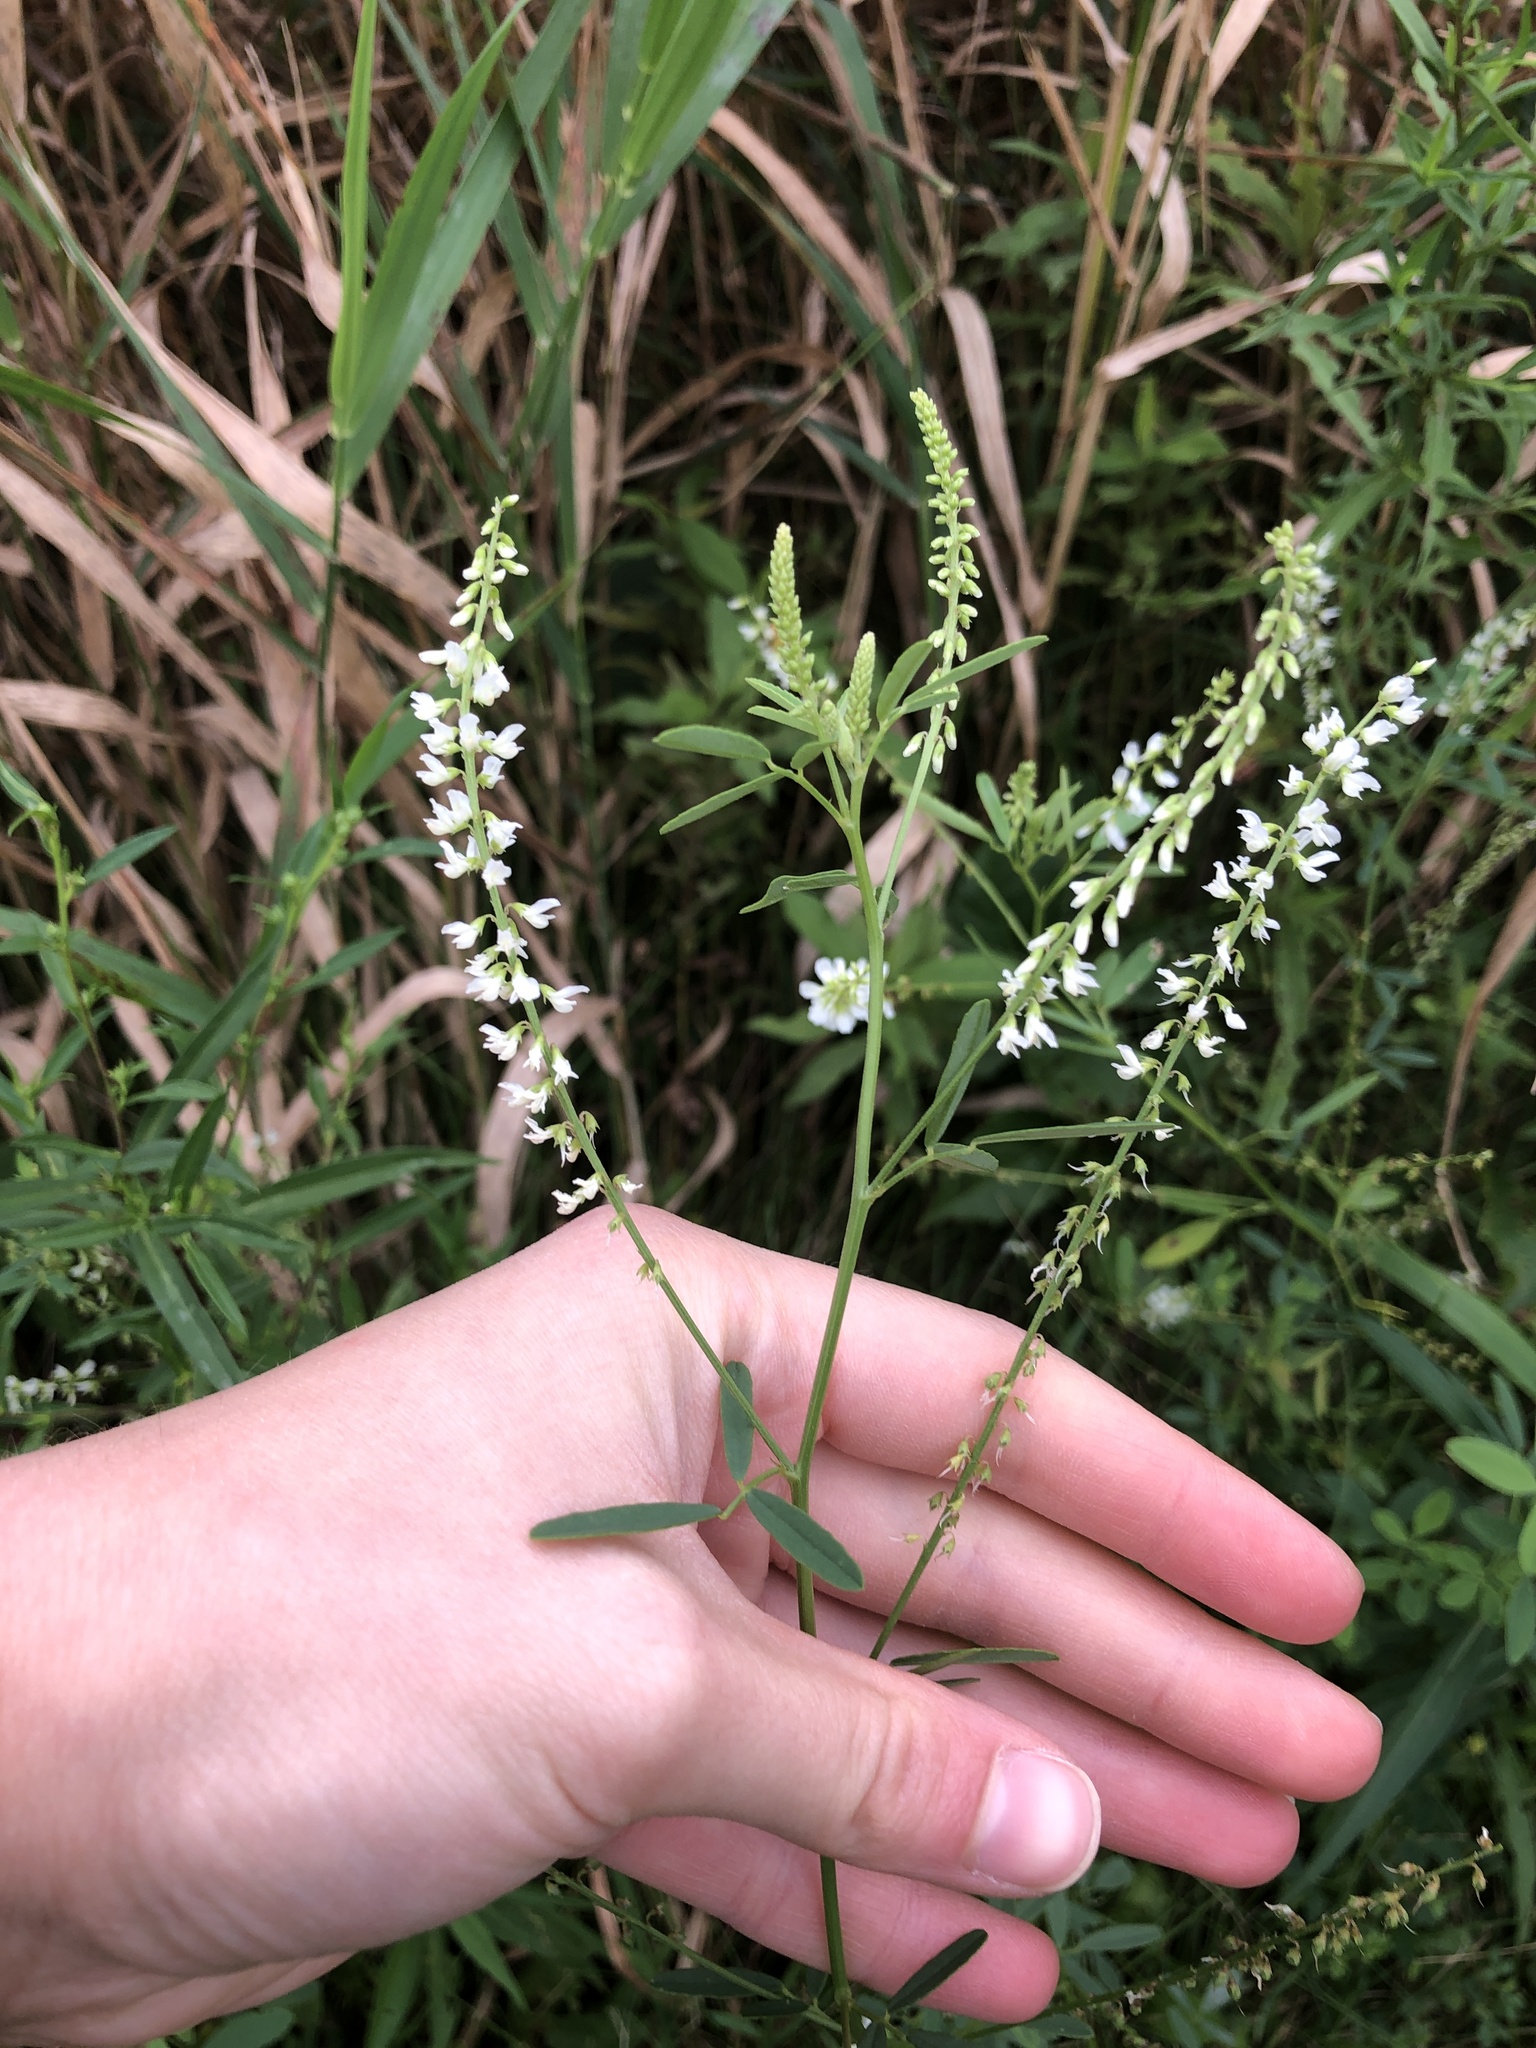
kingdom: Plantae
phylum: Tracheophyta
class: Magnoliopsida
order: Fabales
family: Fabaceae
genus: Melilotus
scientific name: Melilotus albus
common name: White melilot
